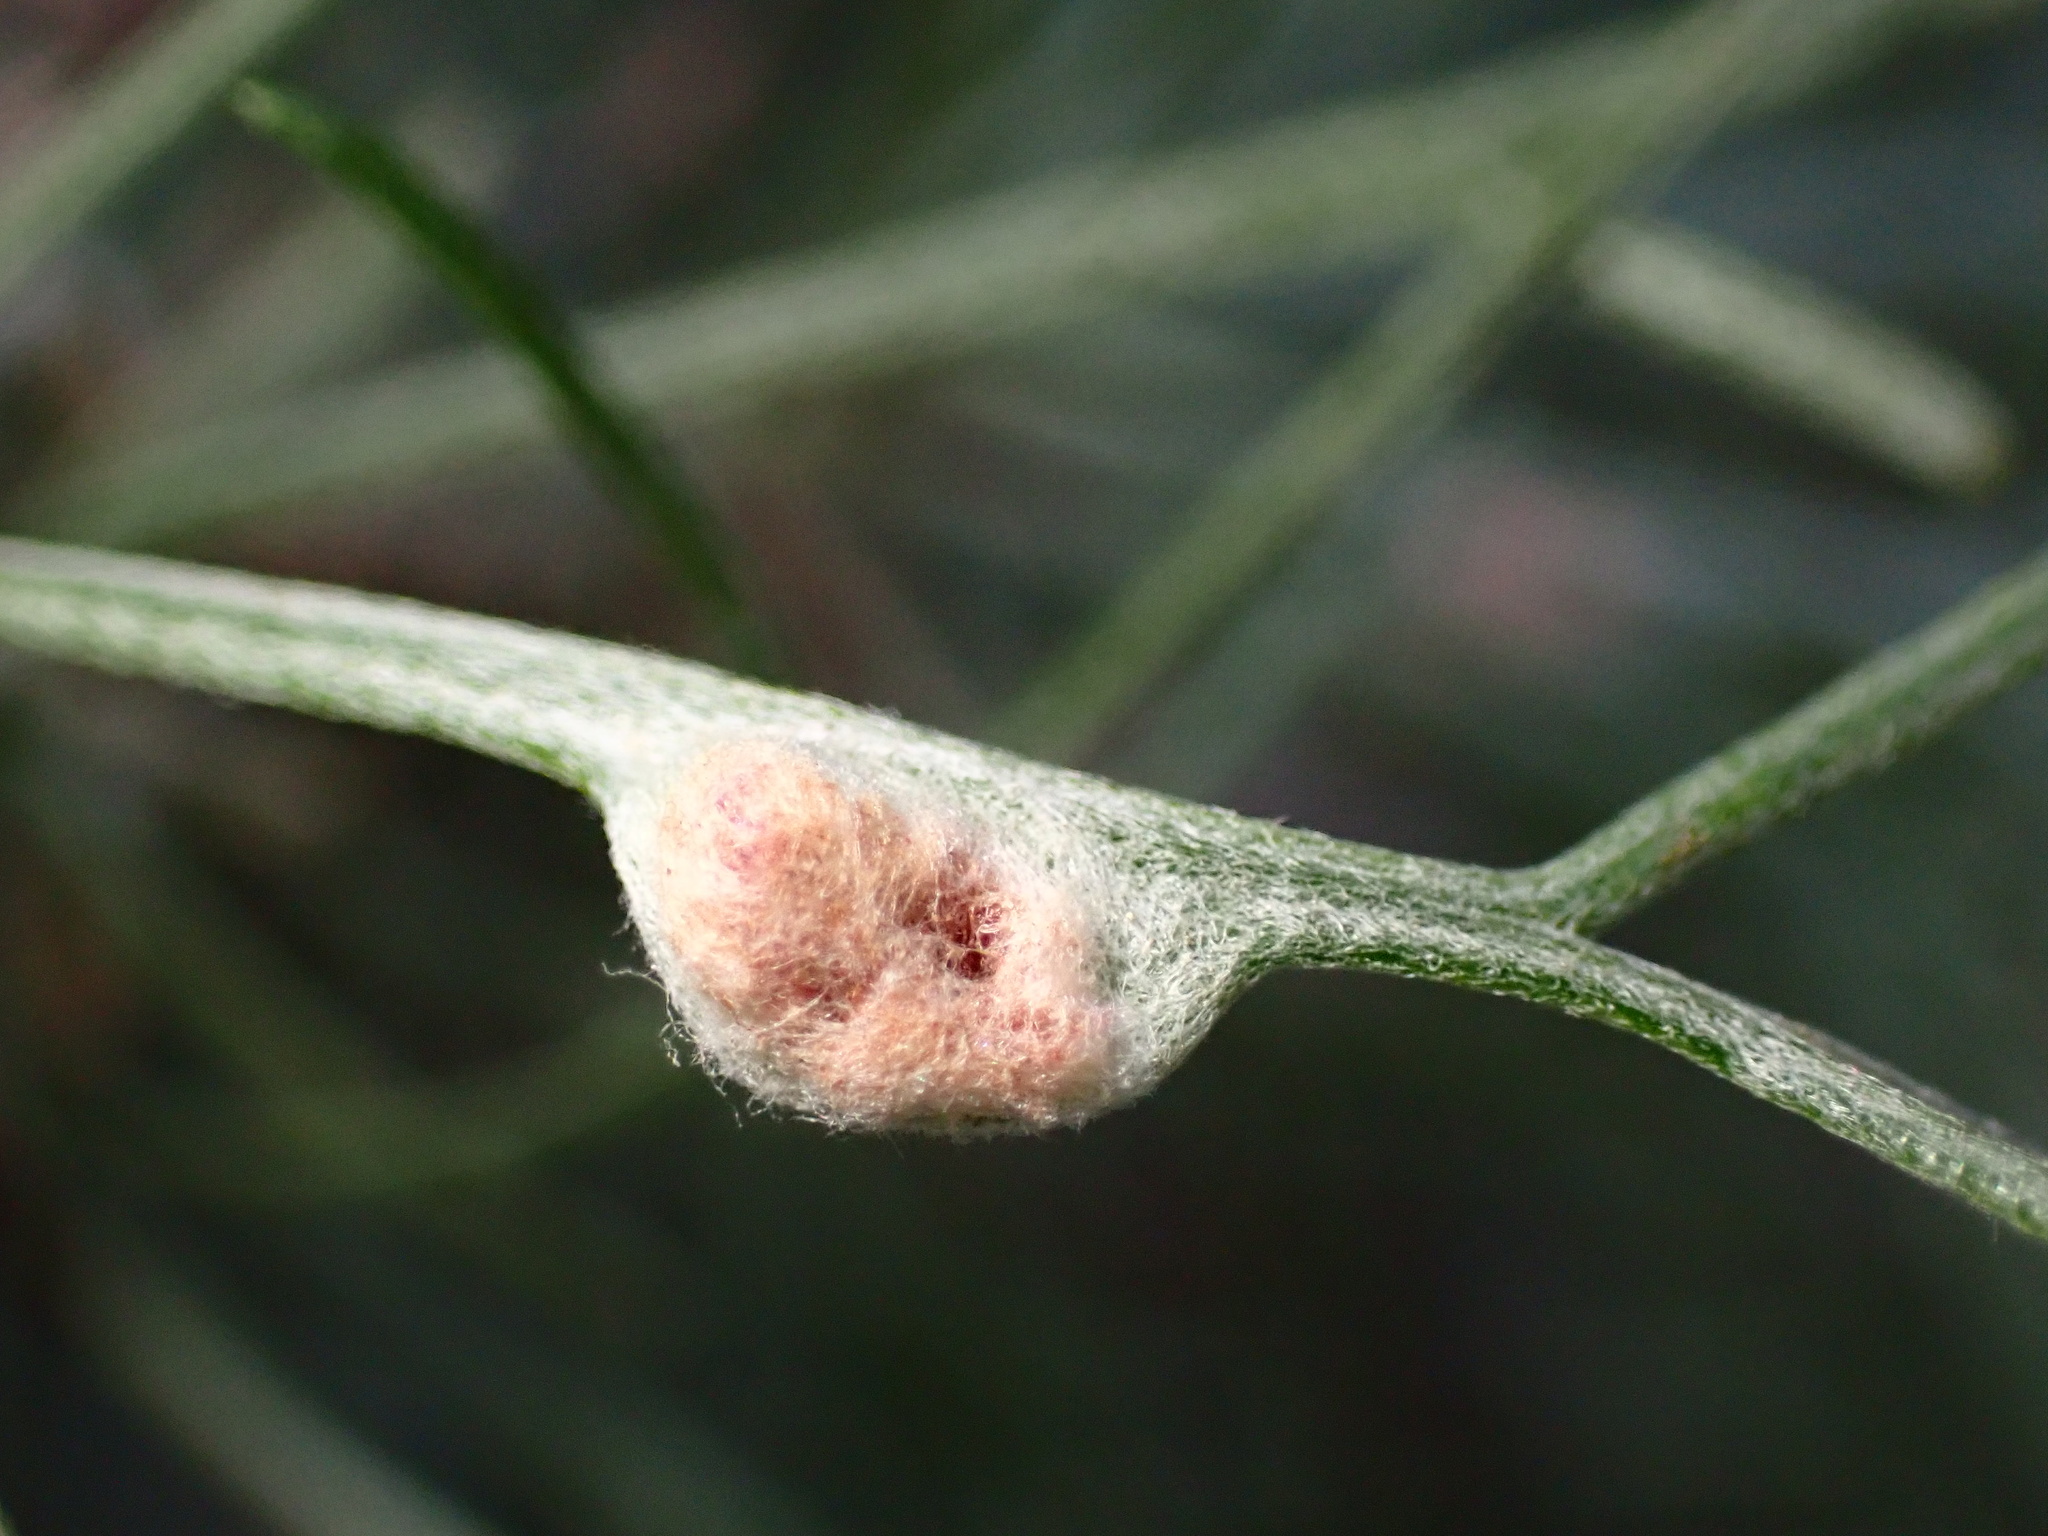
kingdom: Animalia
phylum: Arthropoda
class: Arachnida
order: Trombidiformes
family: Eriophyidae
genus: Aceria
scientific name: Aceria
